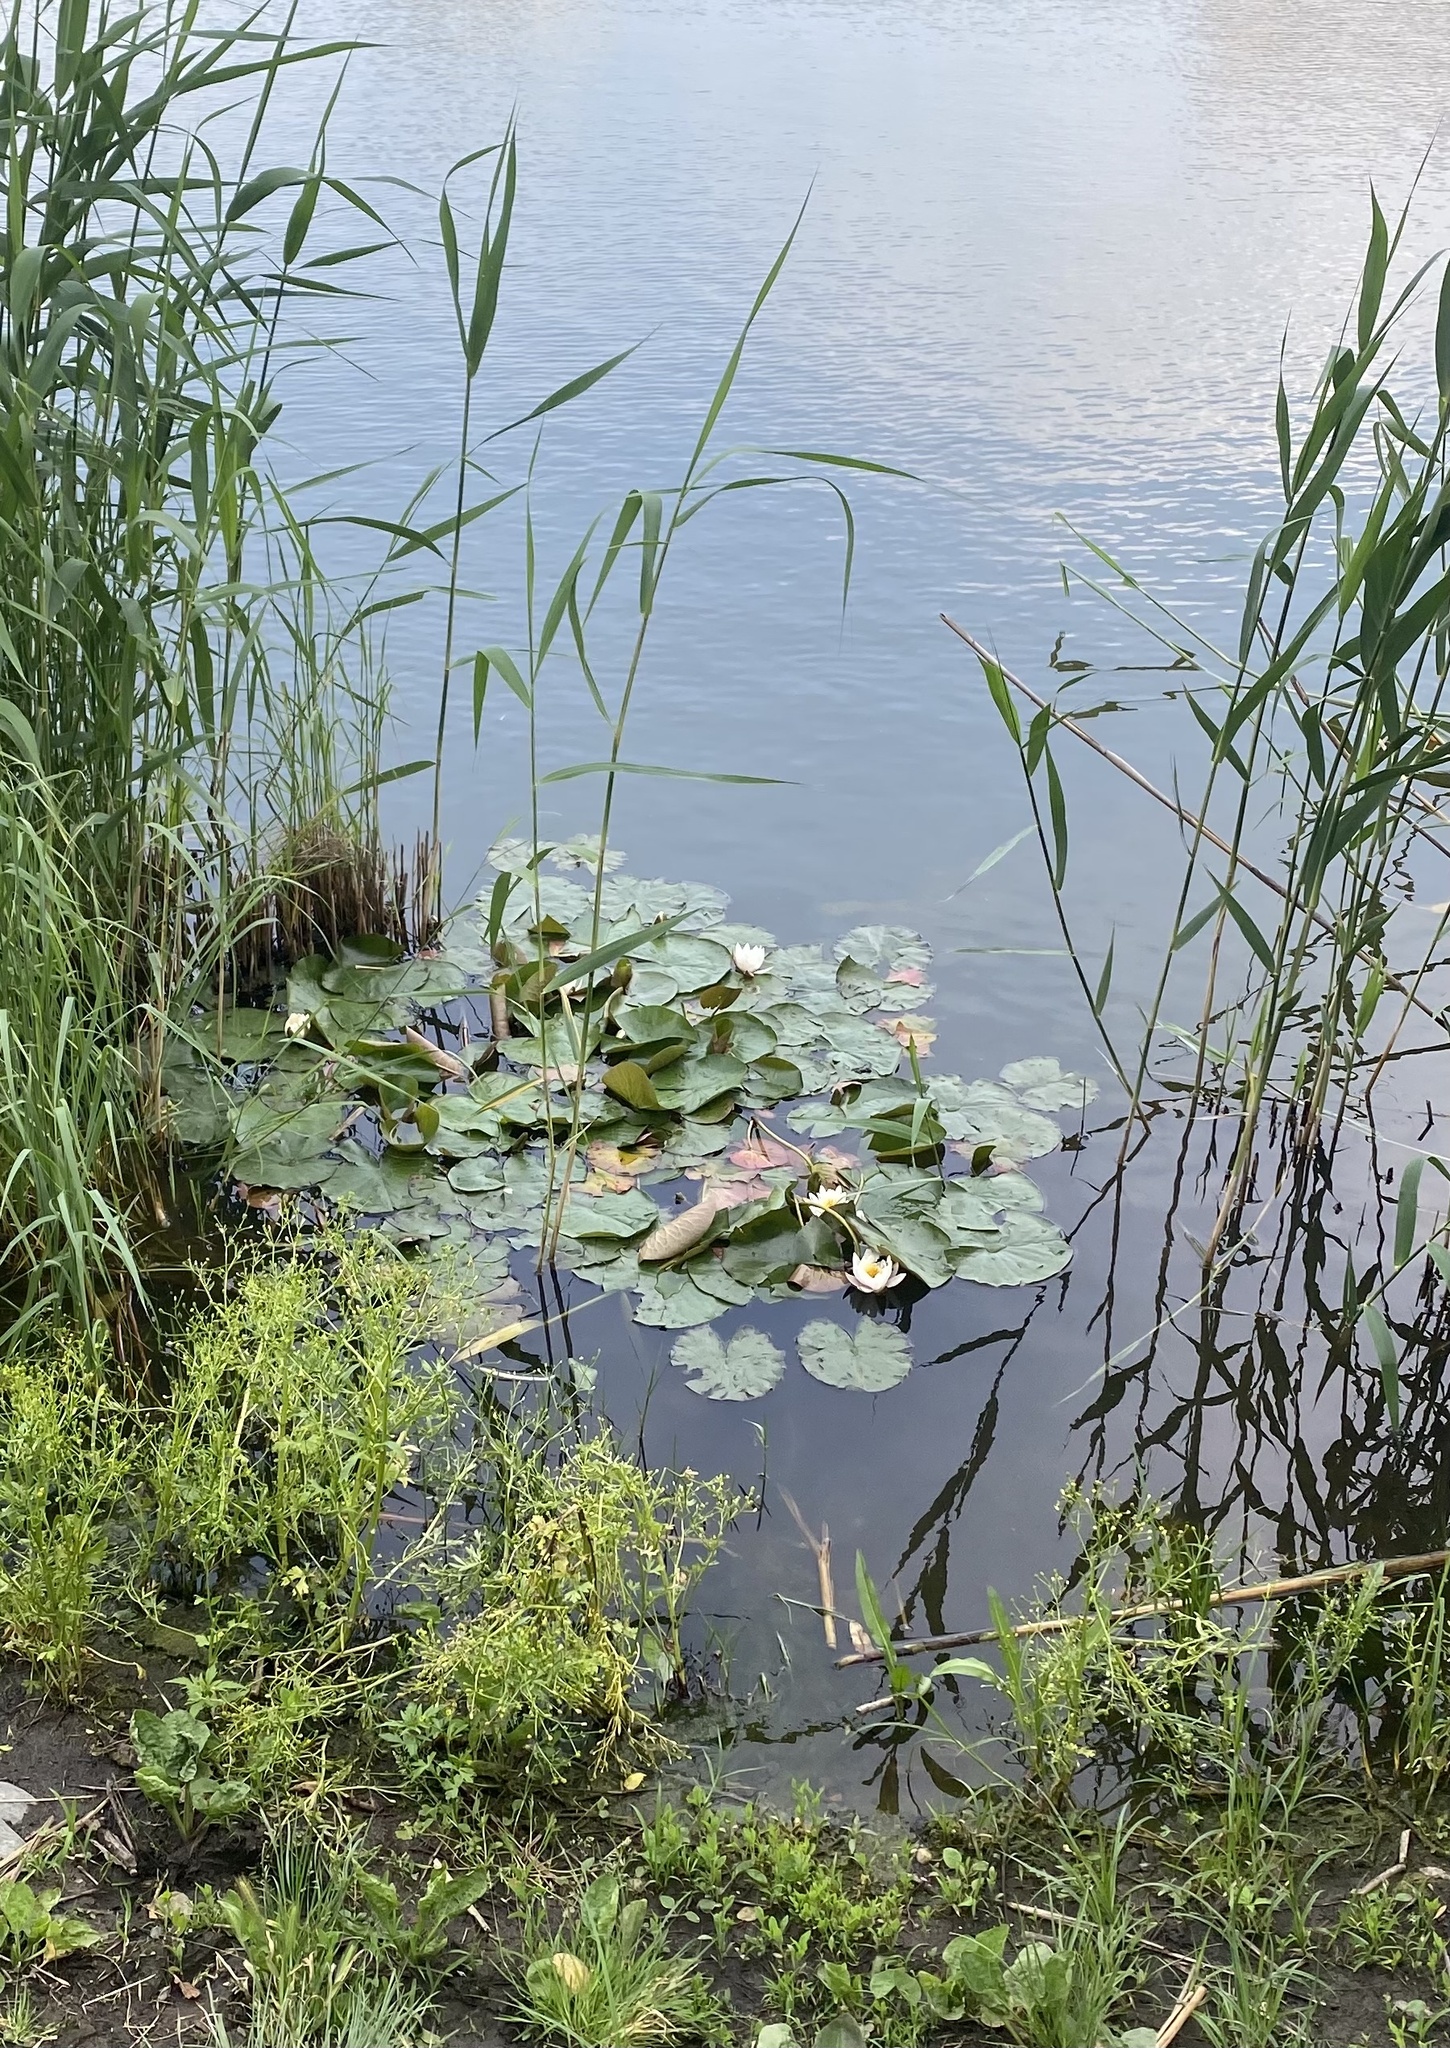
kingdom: Plantae
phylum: Tracheophyta
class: Magnoliopsida
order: Nymphaeales
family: Nymphaeaceae
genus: Nymphaea
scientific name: Nymphaea alba
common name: White water-lily
